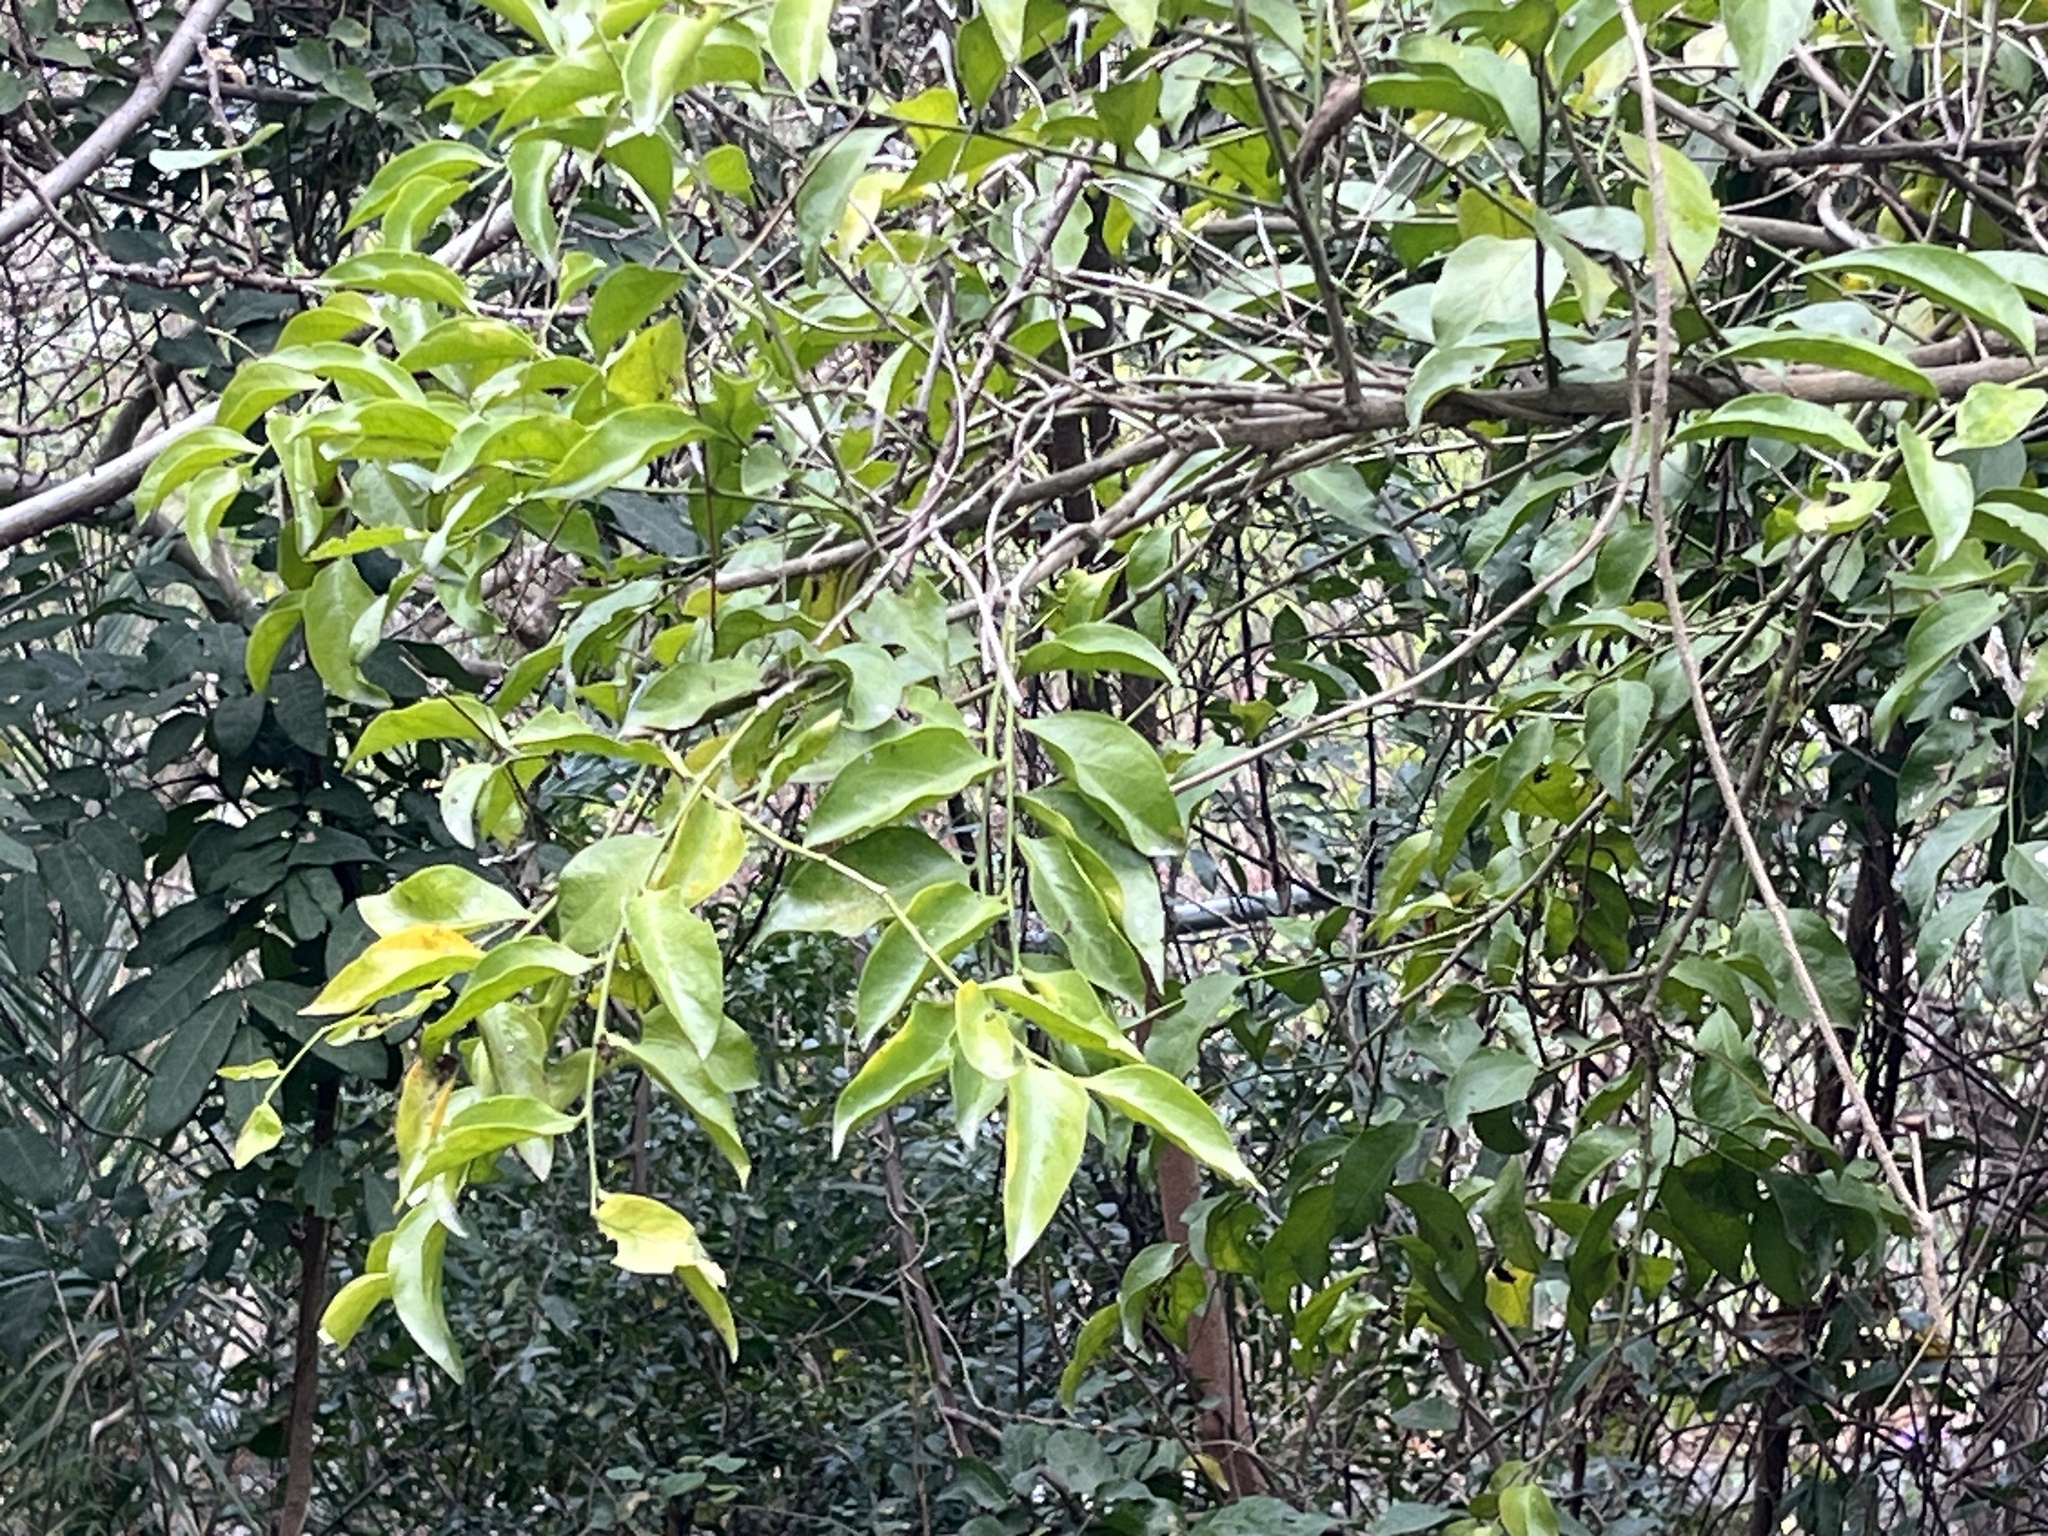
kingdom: Plantae
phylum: Tracheophyta
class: Magnoliopsida
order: Santalales
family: Opiliaceae
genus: Champereia
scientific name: Champereia manillana
